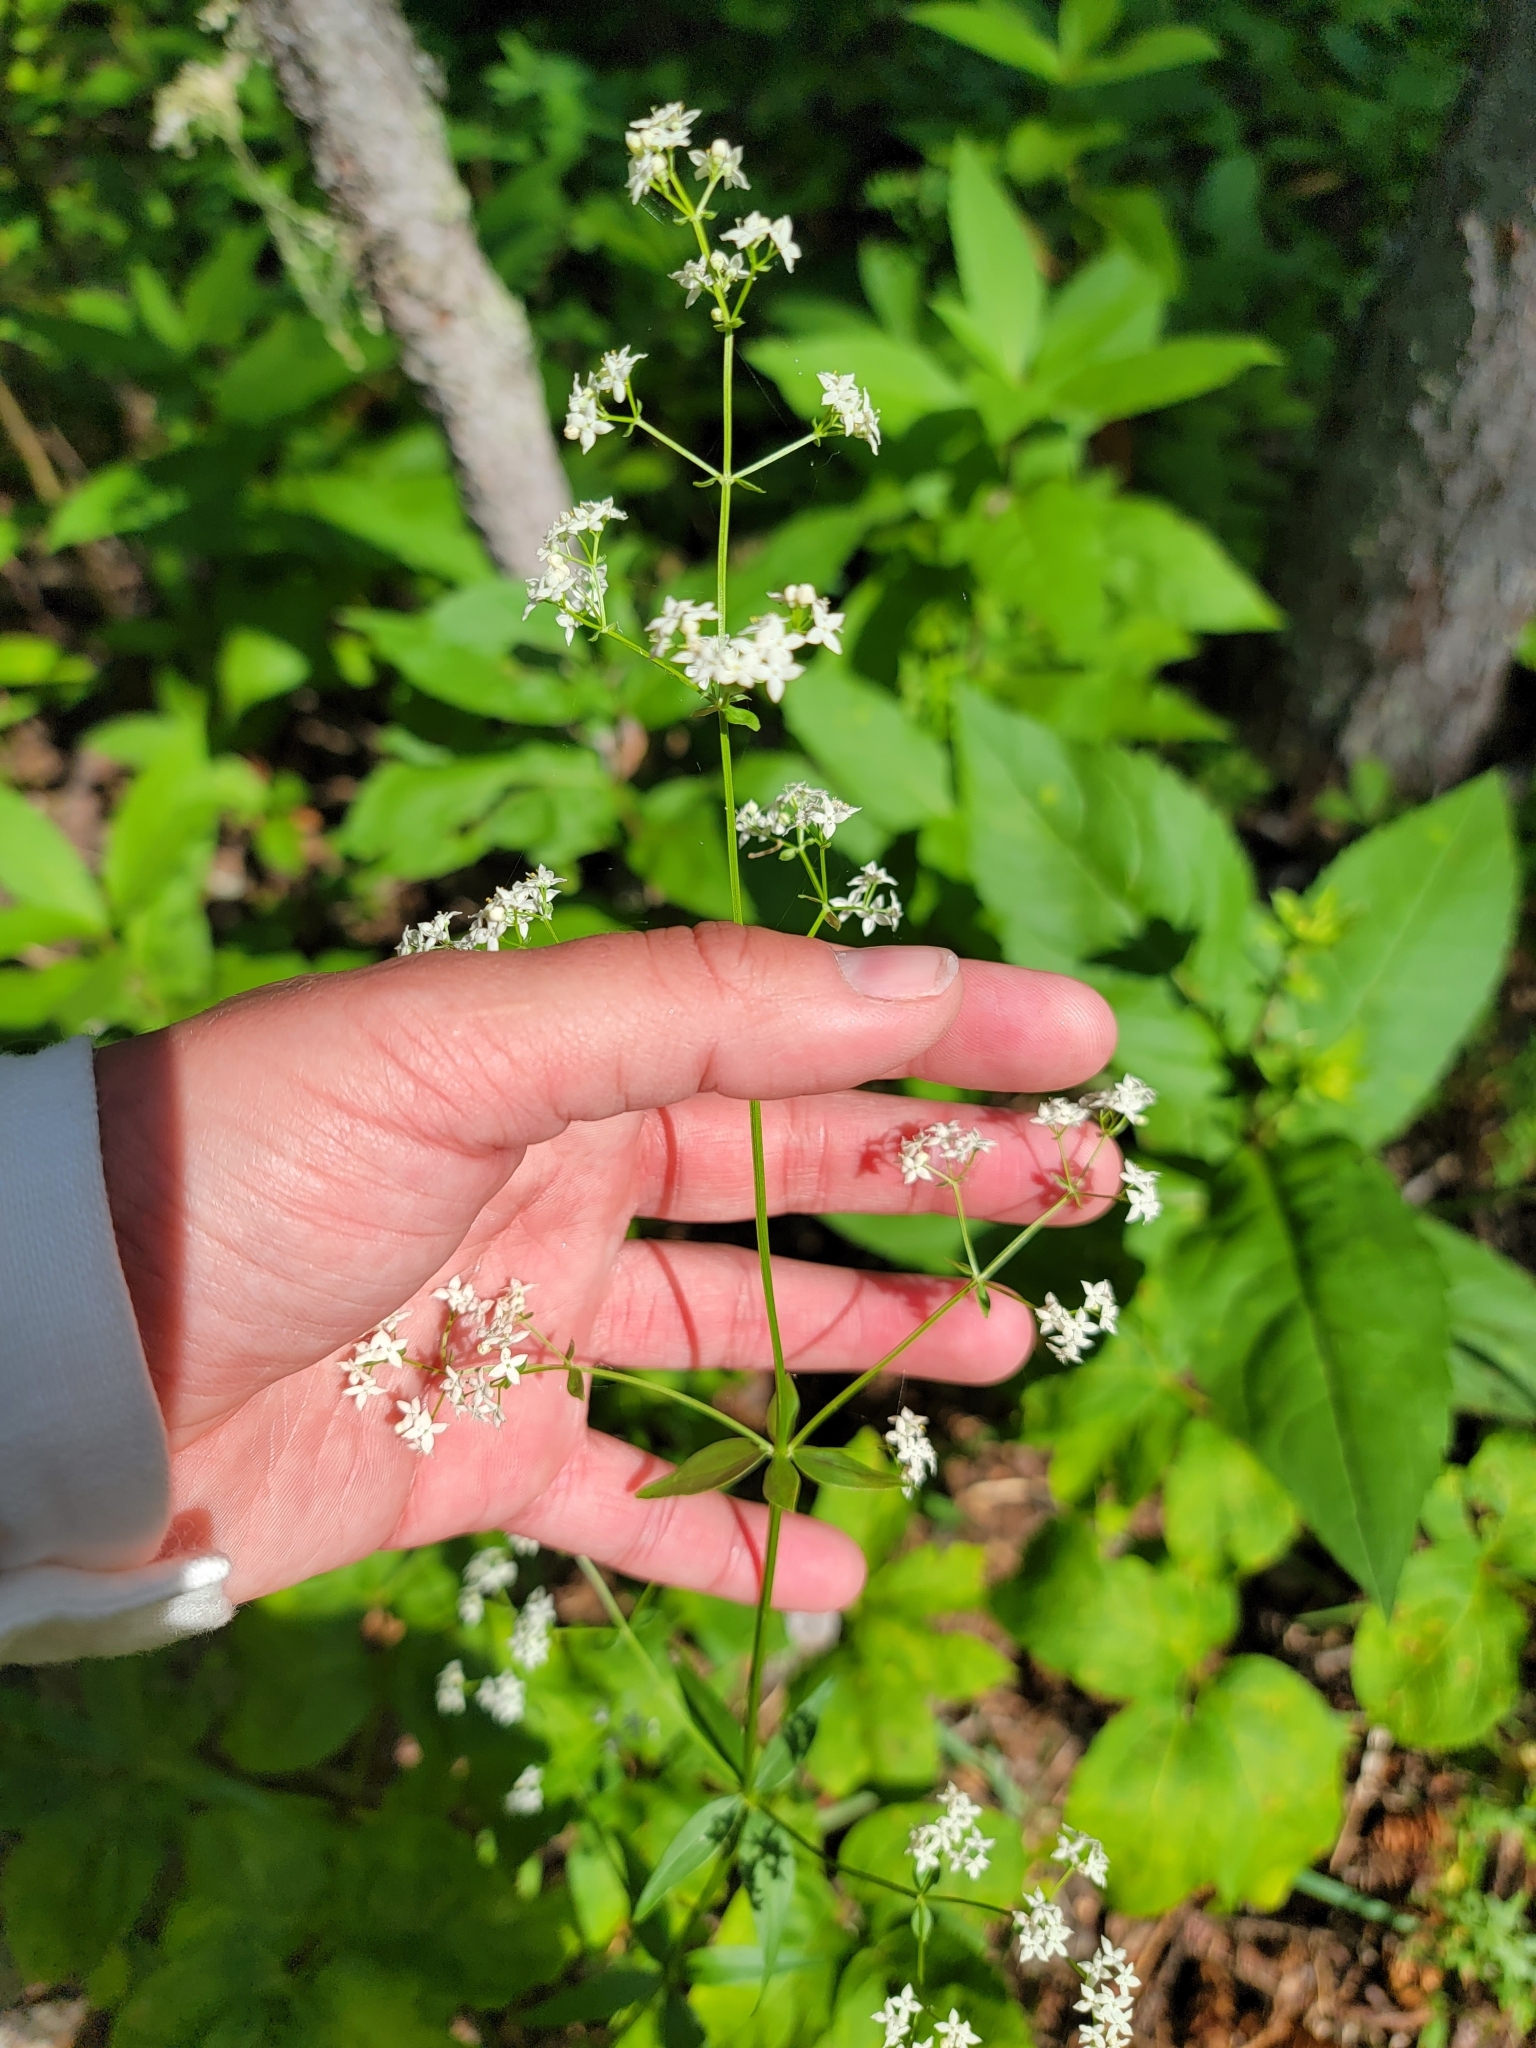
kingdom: Plantae
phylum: Tracheophyta
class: Magnoliopsida
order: Gentianales
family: Rubiaceae
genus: Galium
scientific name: Galium boreale
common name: Northern bedstraw
